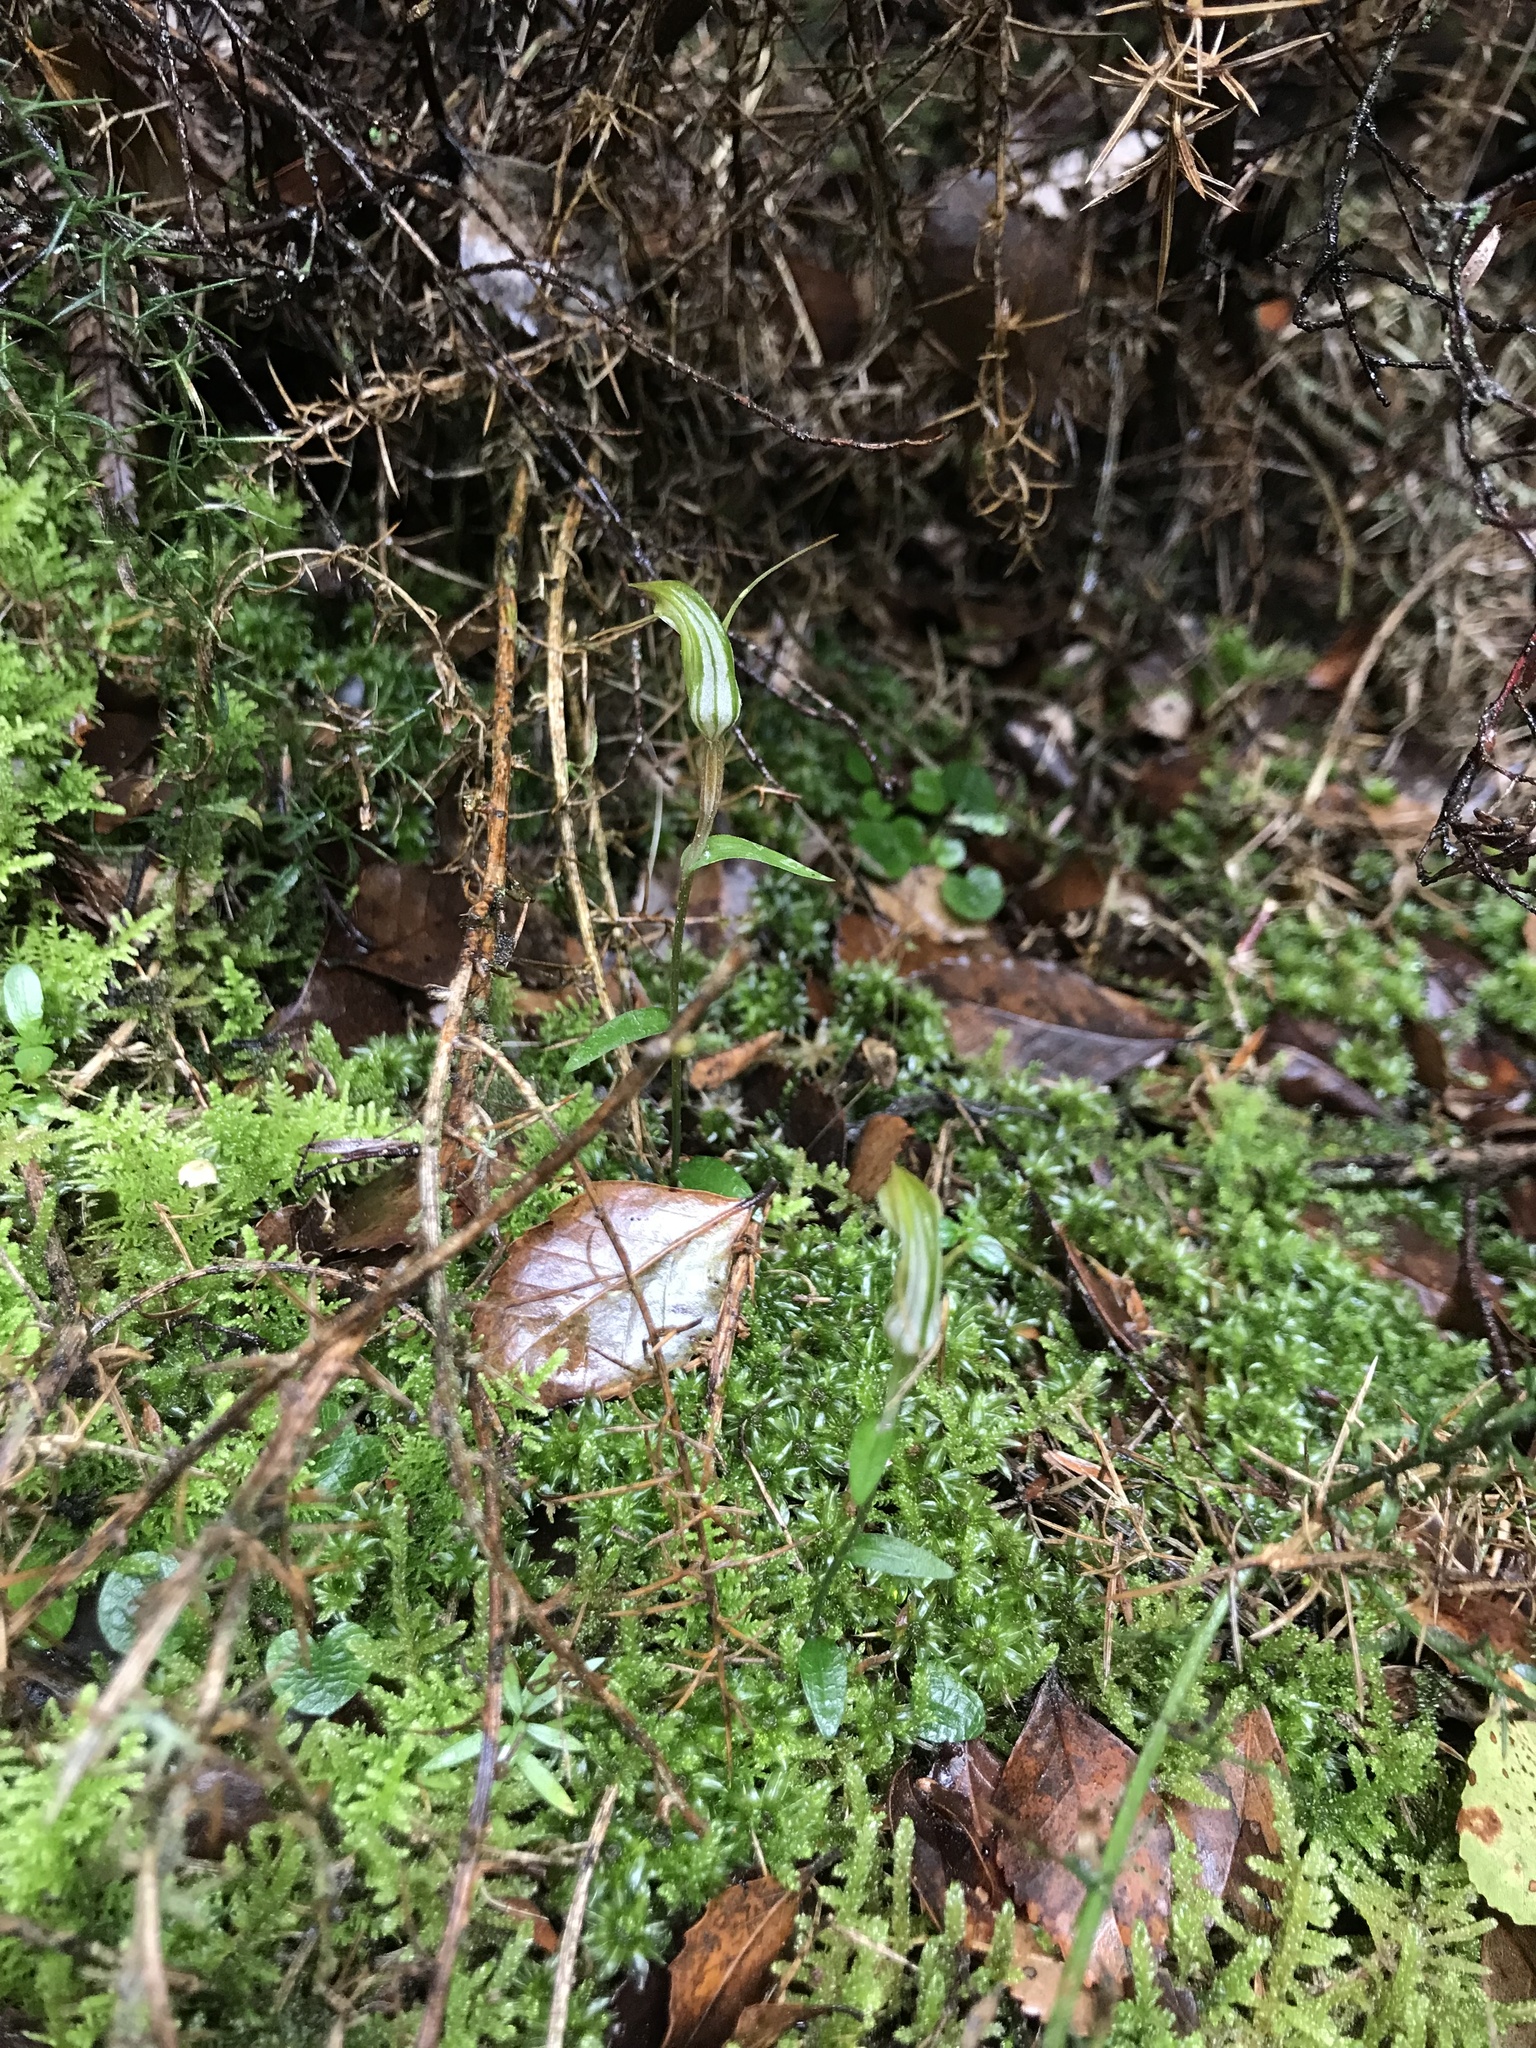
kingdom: Plantae
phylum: Tracheophyta
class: Liliopsida
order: Asparagales
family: Orchidaceae
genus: Pterostylis
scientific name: Pterostylis trullifolia
